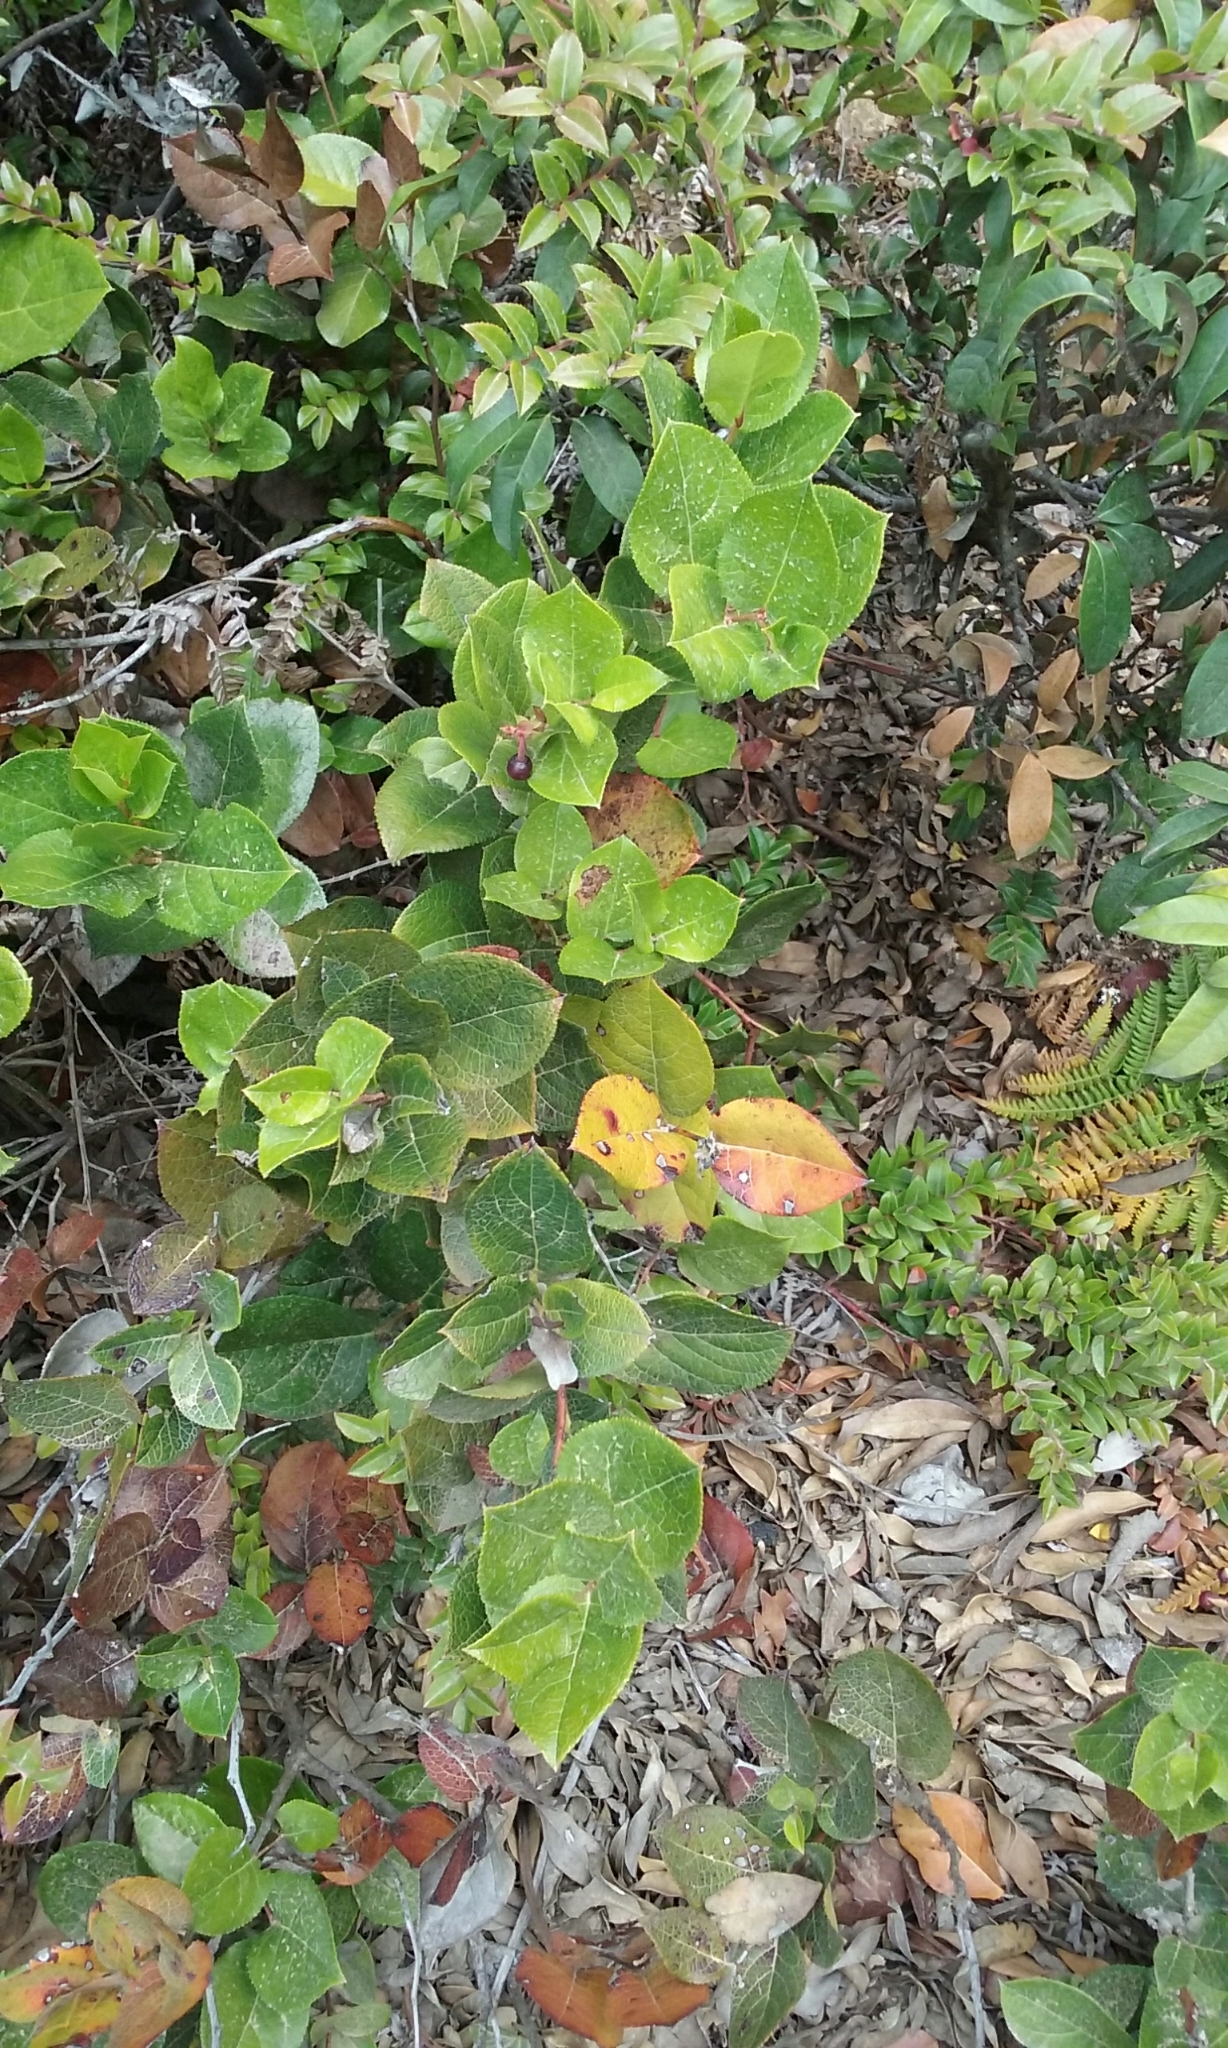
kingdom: Plantae
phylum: Tracheophyta
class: Magnoliopsida
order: Ericales
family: Ericaceae
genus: Gaultheria
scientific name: Gaultheria shallon
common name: Shallon
